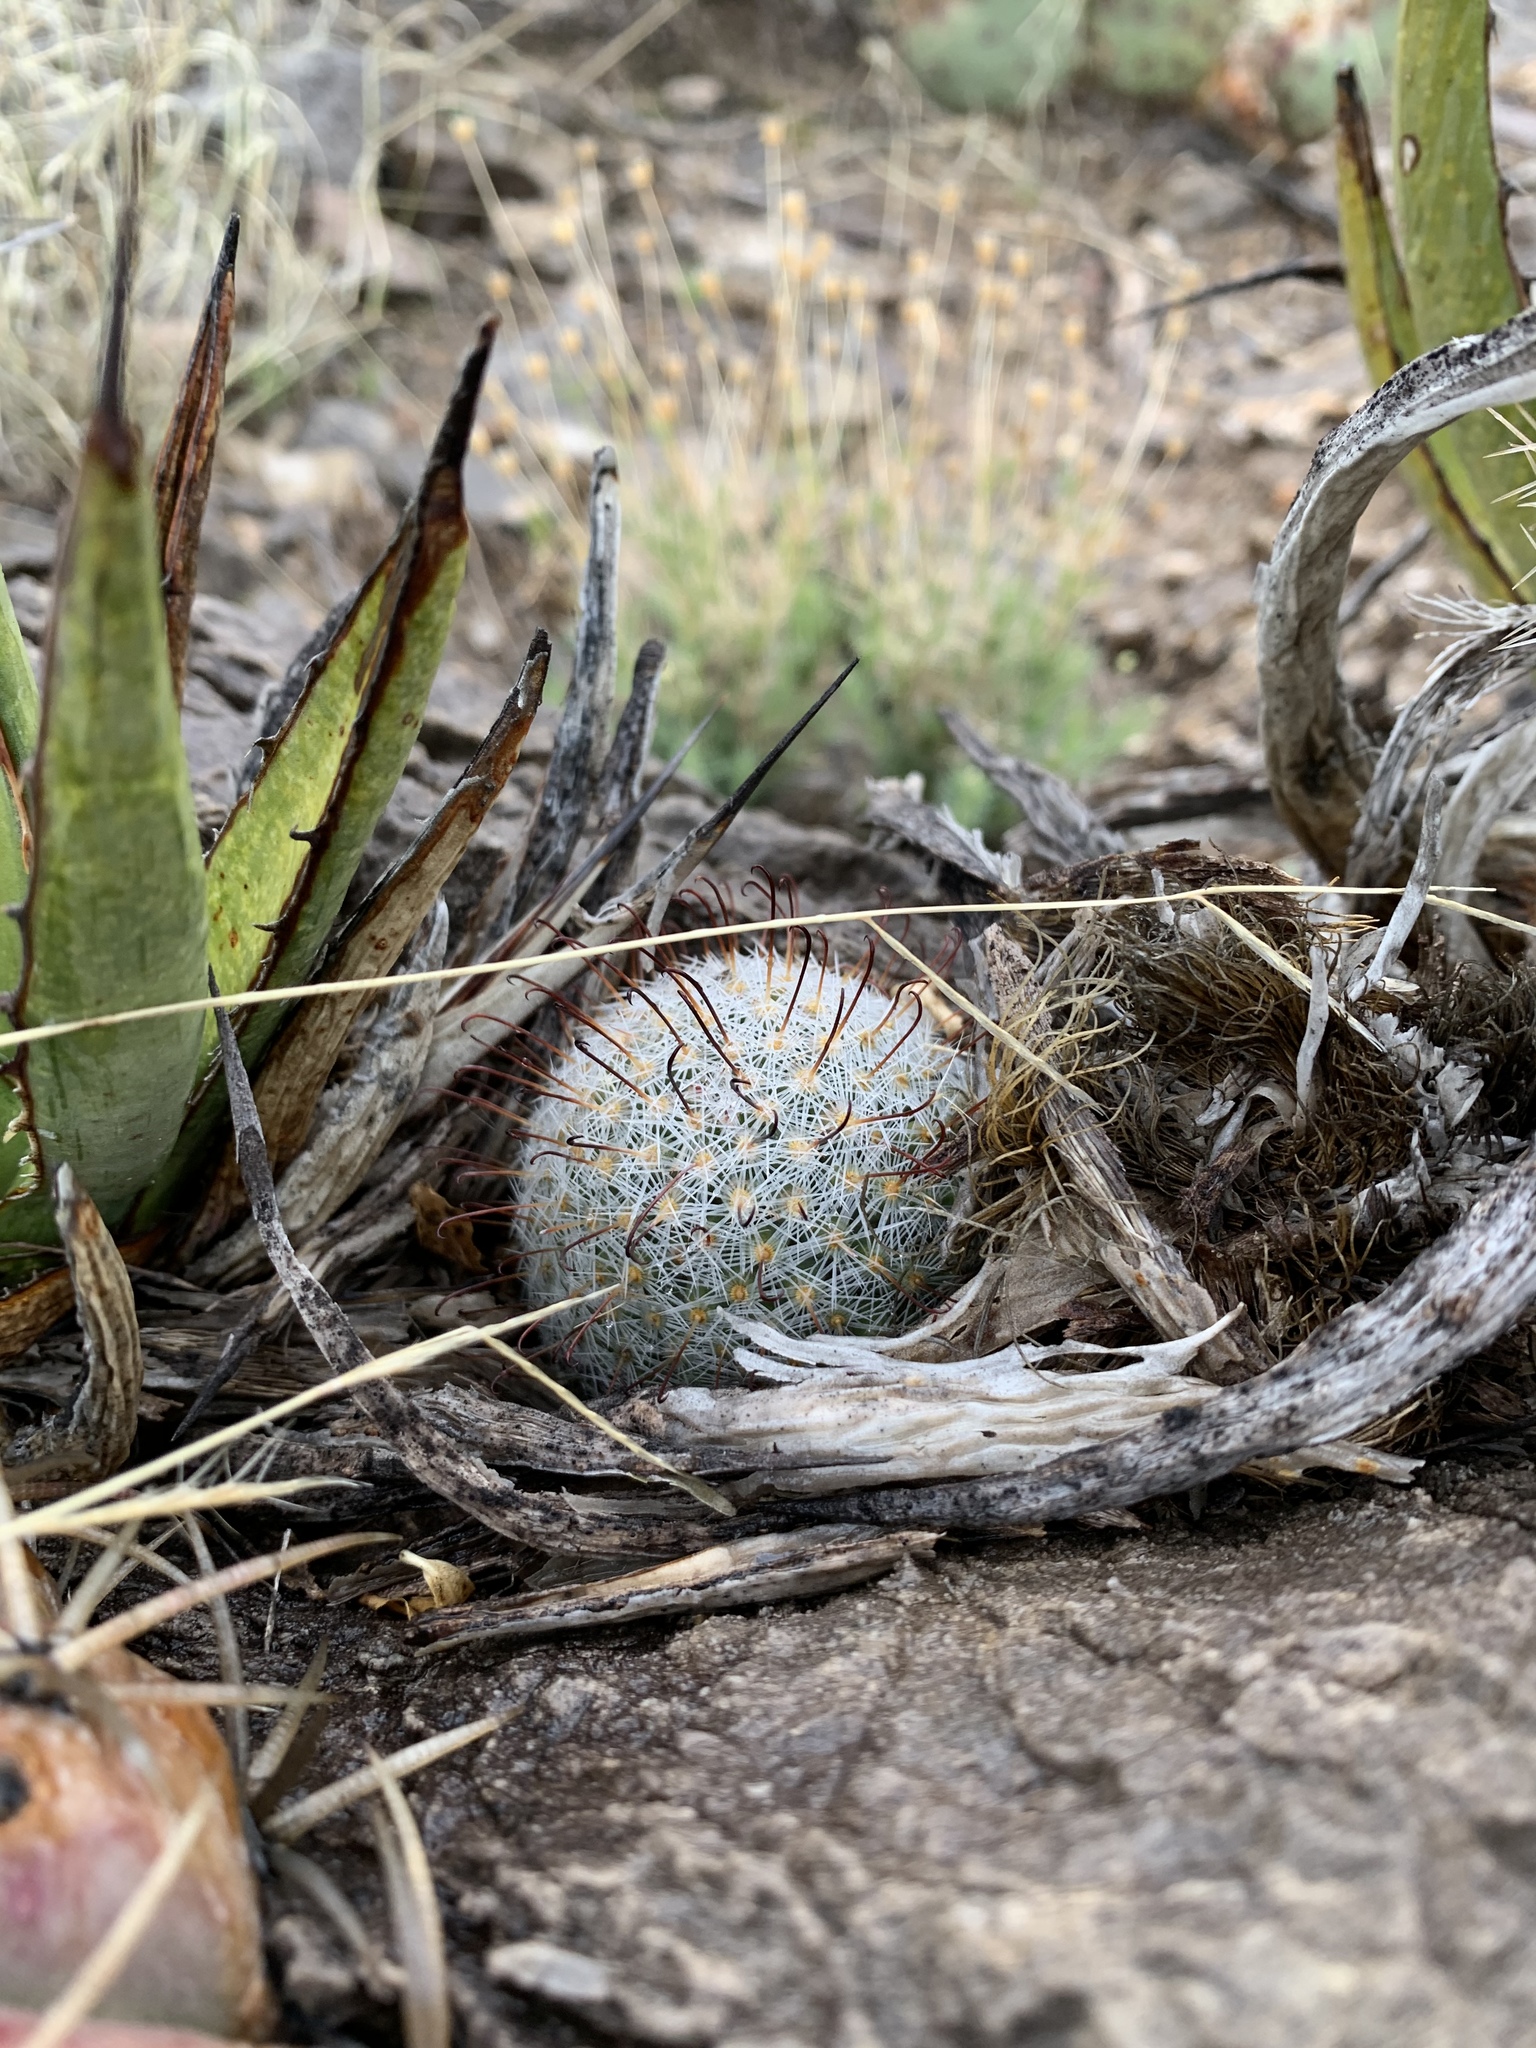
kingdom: Plantae
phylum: Tracheophyta
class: Magnoliopsida
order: Caryophyllales
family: Cactaceae
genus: Cochemiea
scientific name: Cochemiea grahamii
